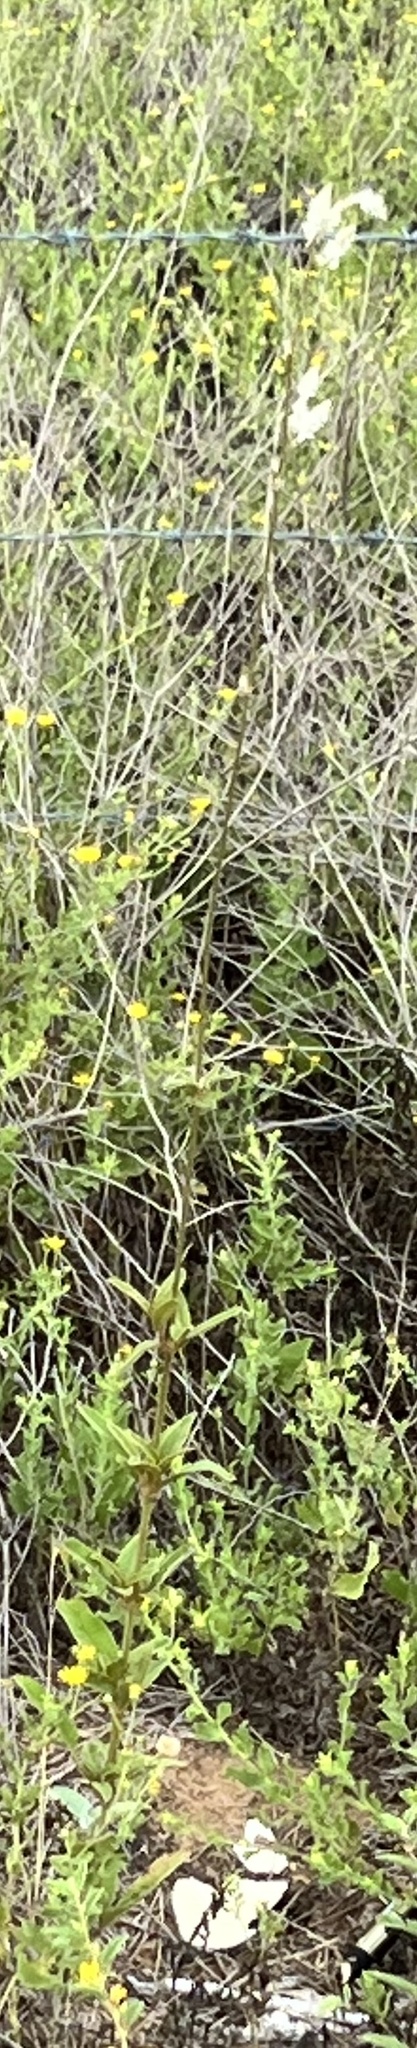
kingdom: Plantae
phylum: Tracheophyta
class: Magnoliopsida
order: Caryophyllales
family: Amaranthaceae
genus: Froelichia
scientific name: Froelichia floridana
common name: Florida snake-cotton
